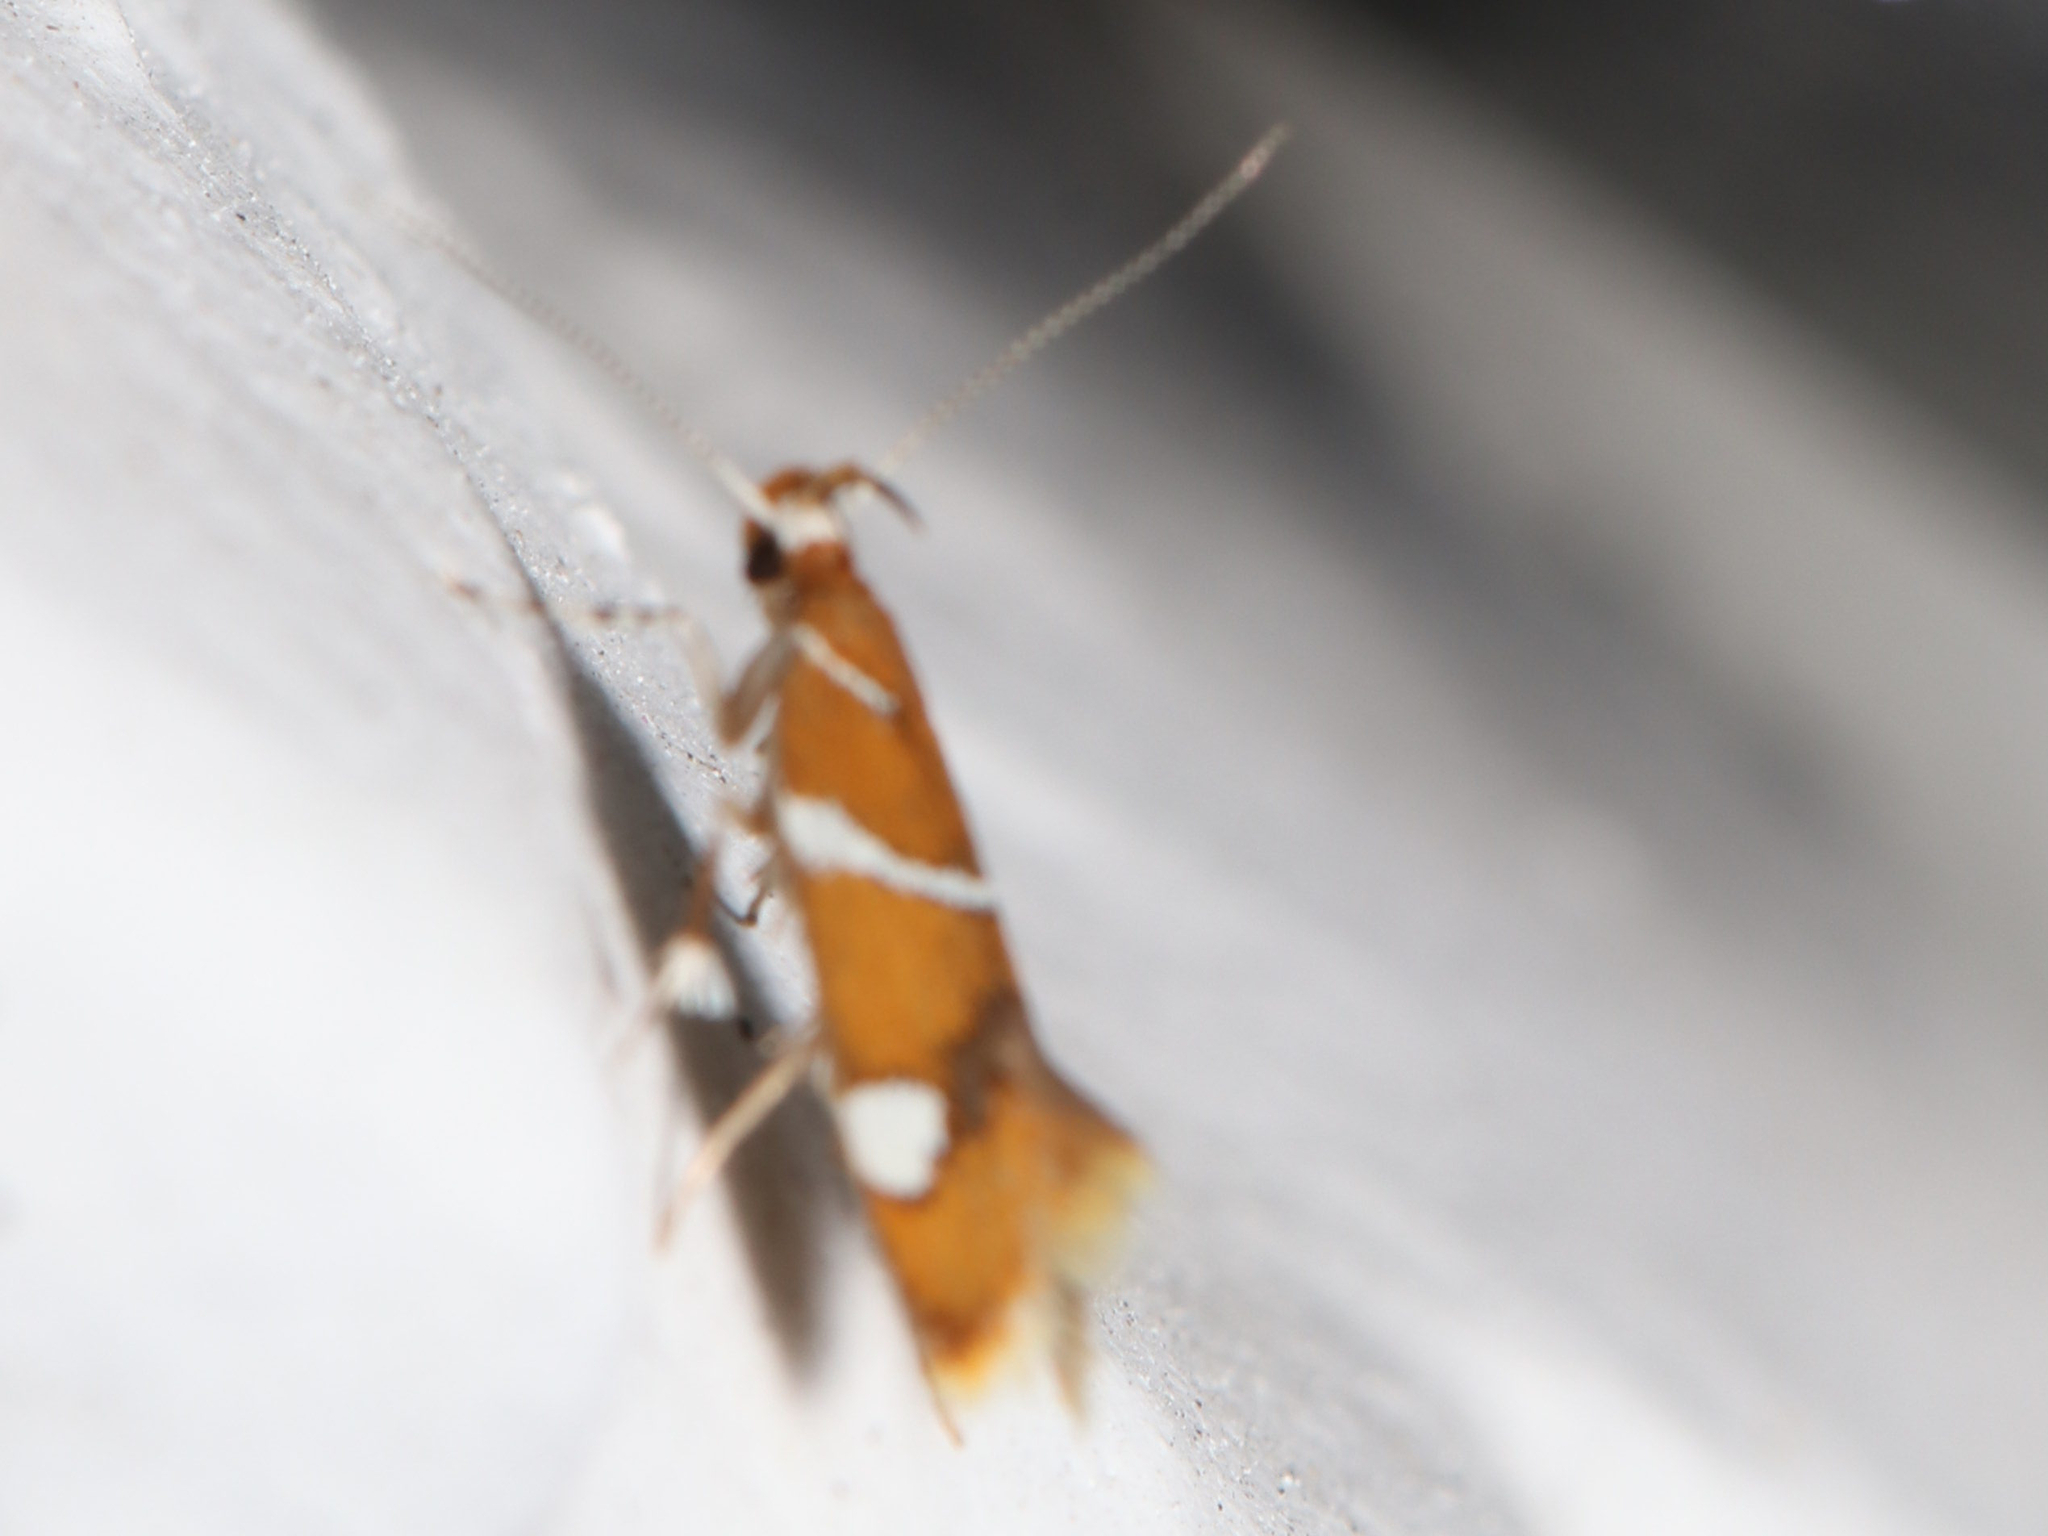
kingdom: Animalia
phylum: Arthropoda
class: Insecta
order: Lepidoptera
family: Oecophoridae
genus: Promalactis
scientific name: Promalactis suzukiella
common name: Moth
